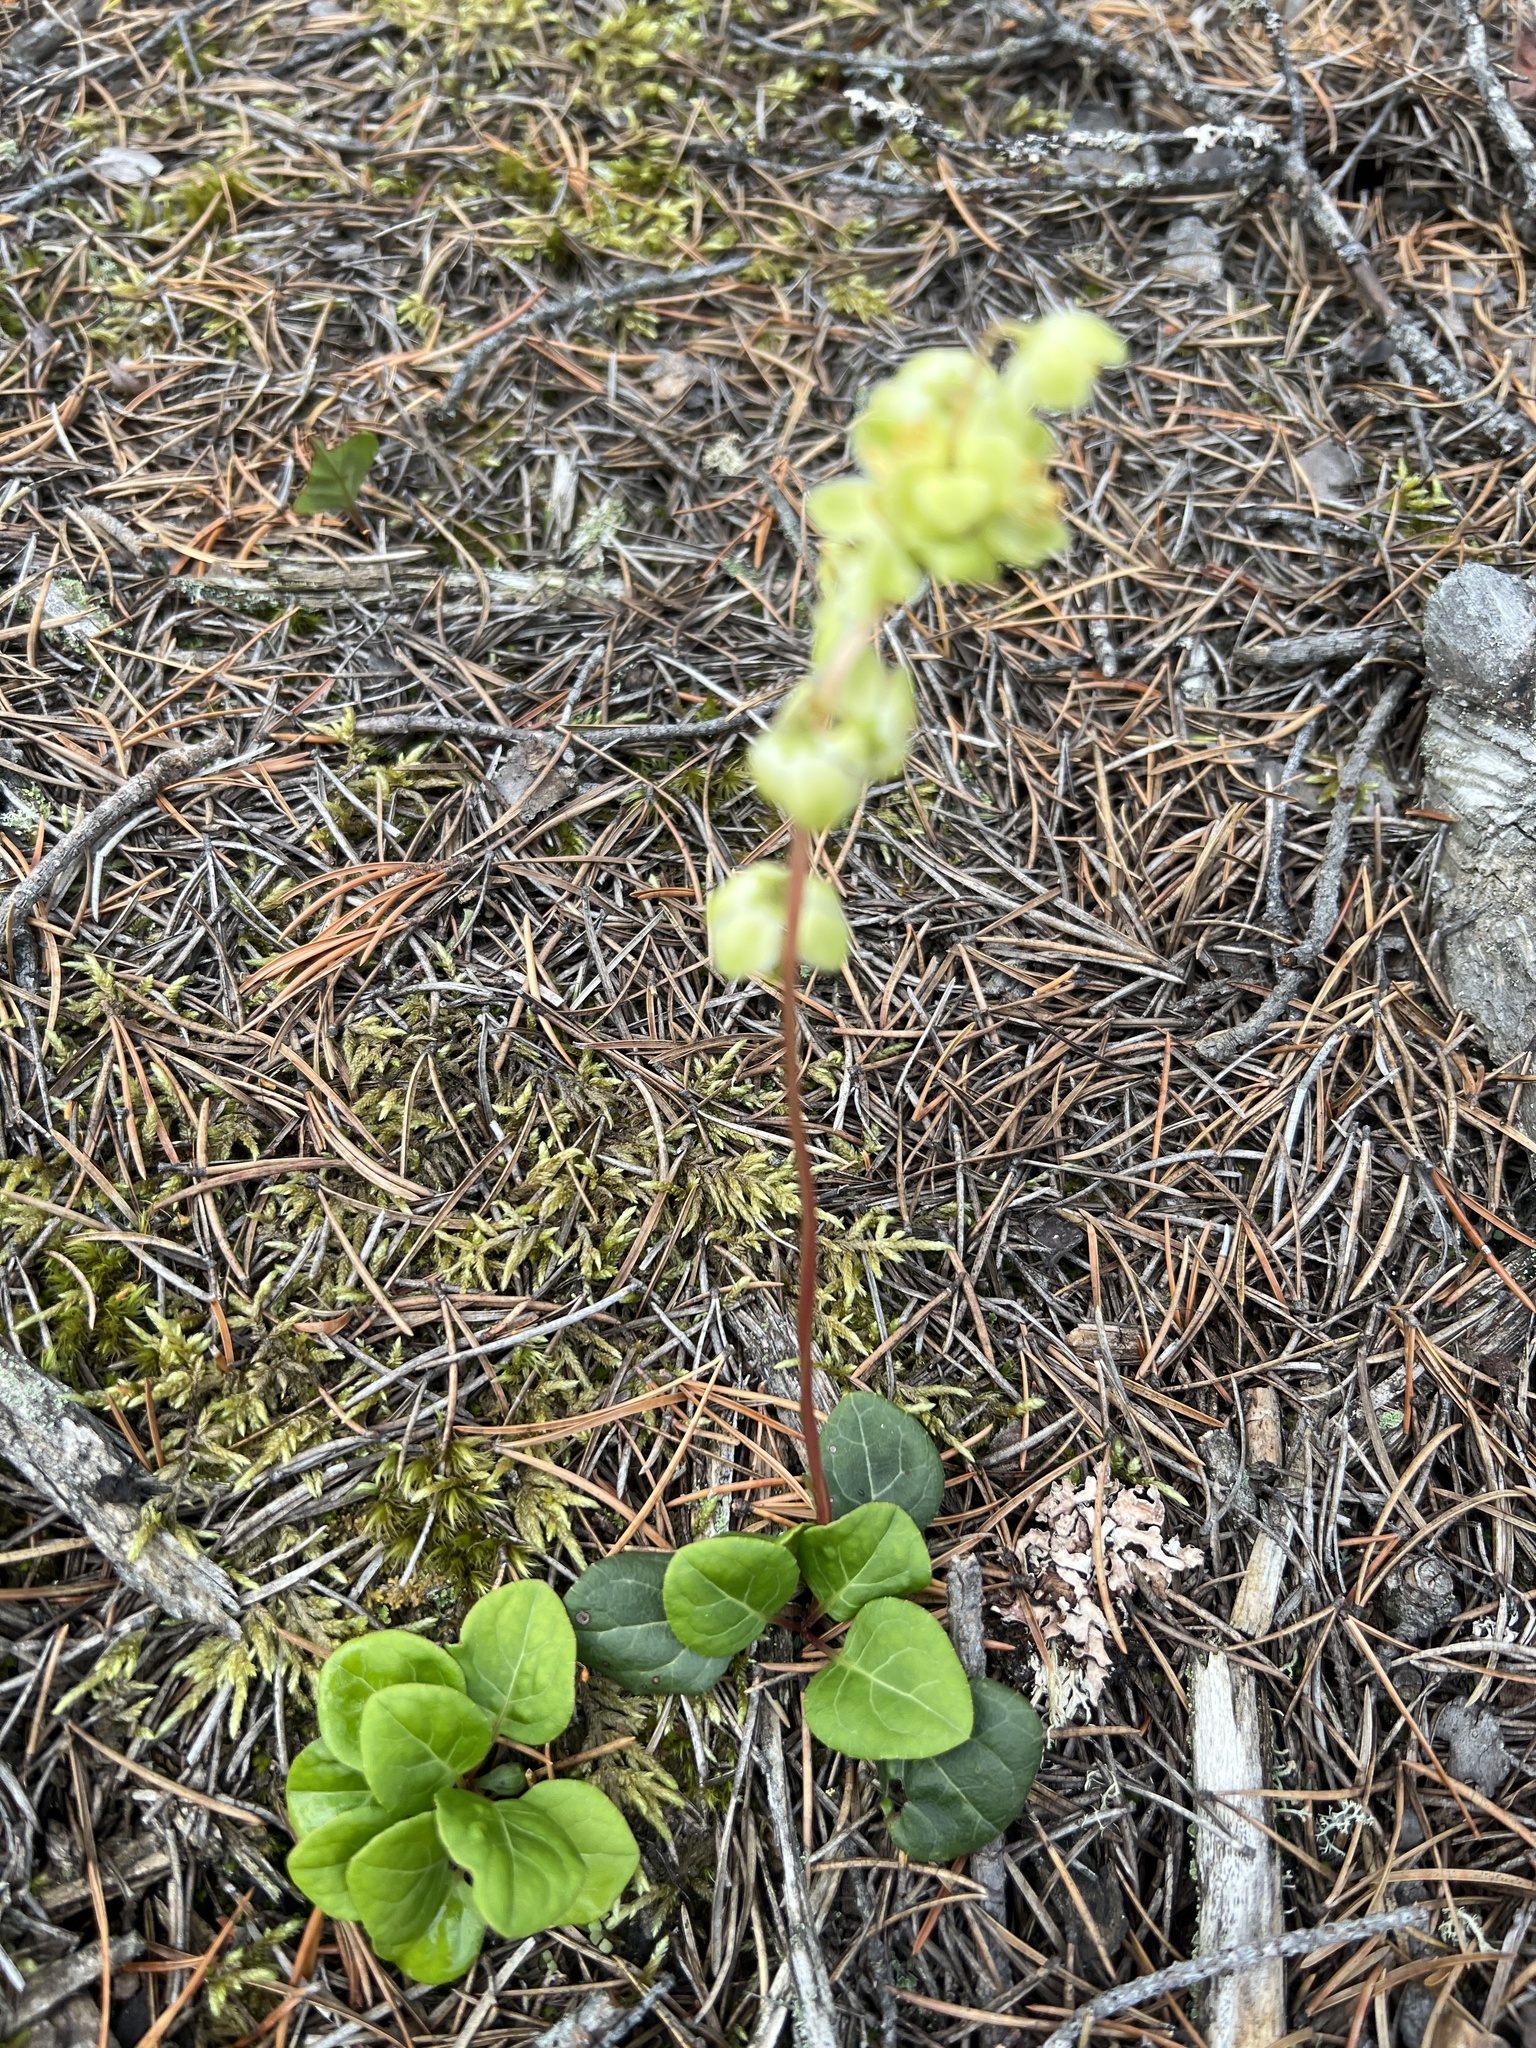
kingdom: Plantae
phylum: Tracheophyta
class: Magnoliopsida
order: Ericales
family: Ericaceae
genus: Pyrola
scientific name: Pyrola chlorantha
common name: Green wintergreen
